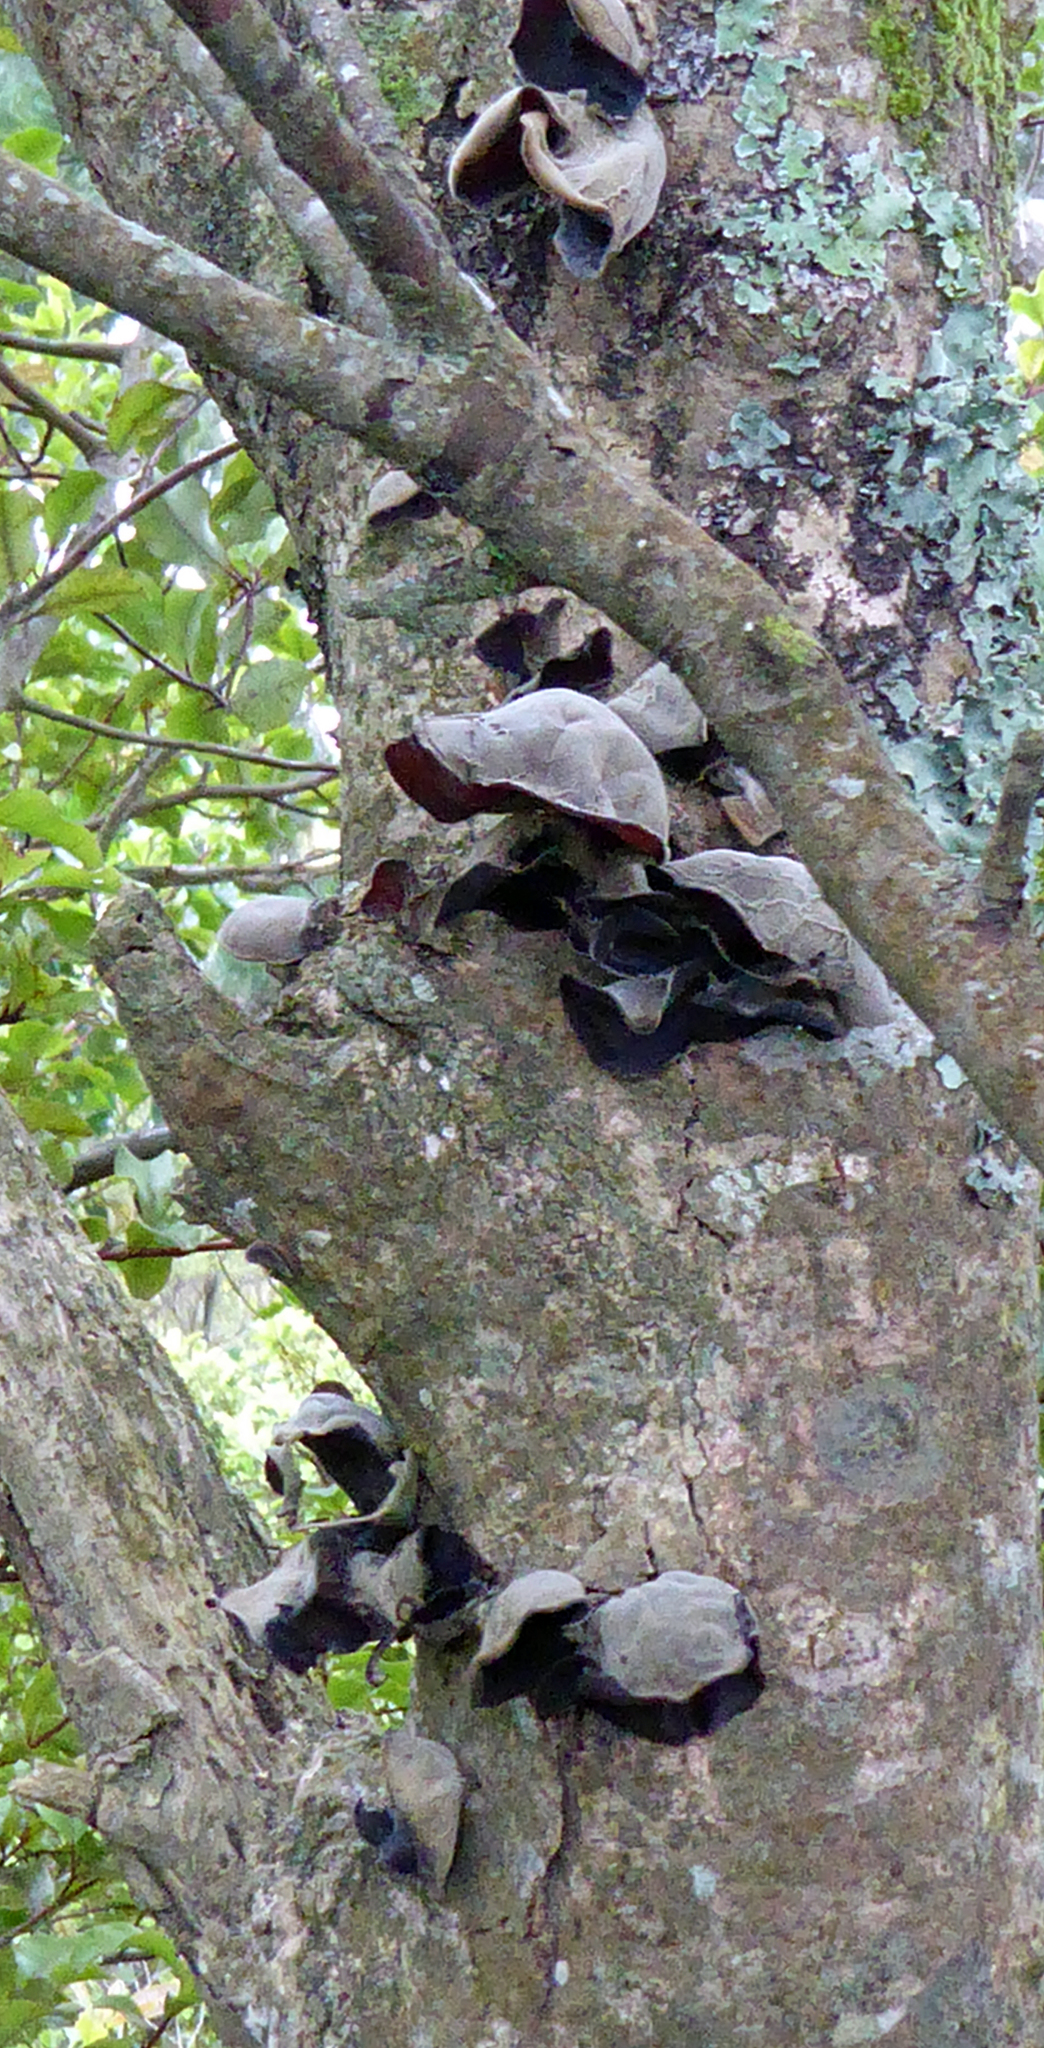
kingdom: Fungi
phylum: Basidiomycota
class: Agaricomycetes
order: Auriculariales
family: Auriculariaceae
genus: Auricularia
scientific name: Auricularia cornea
